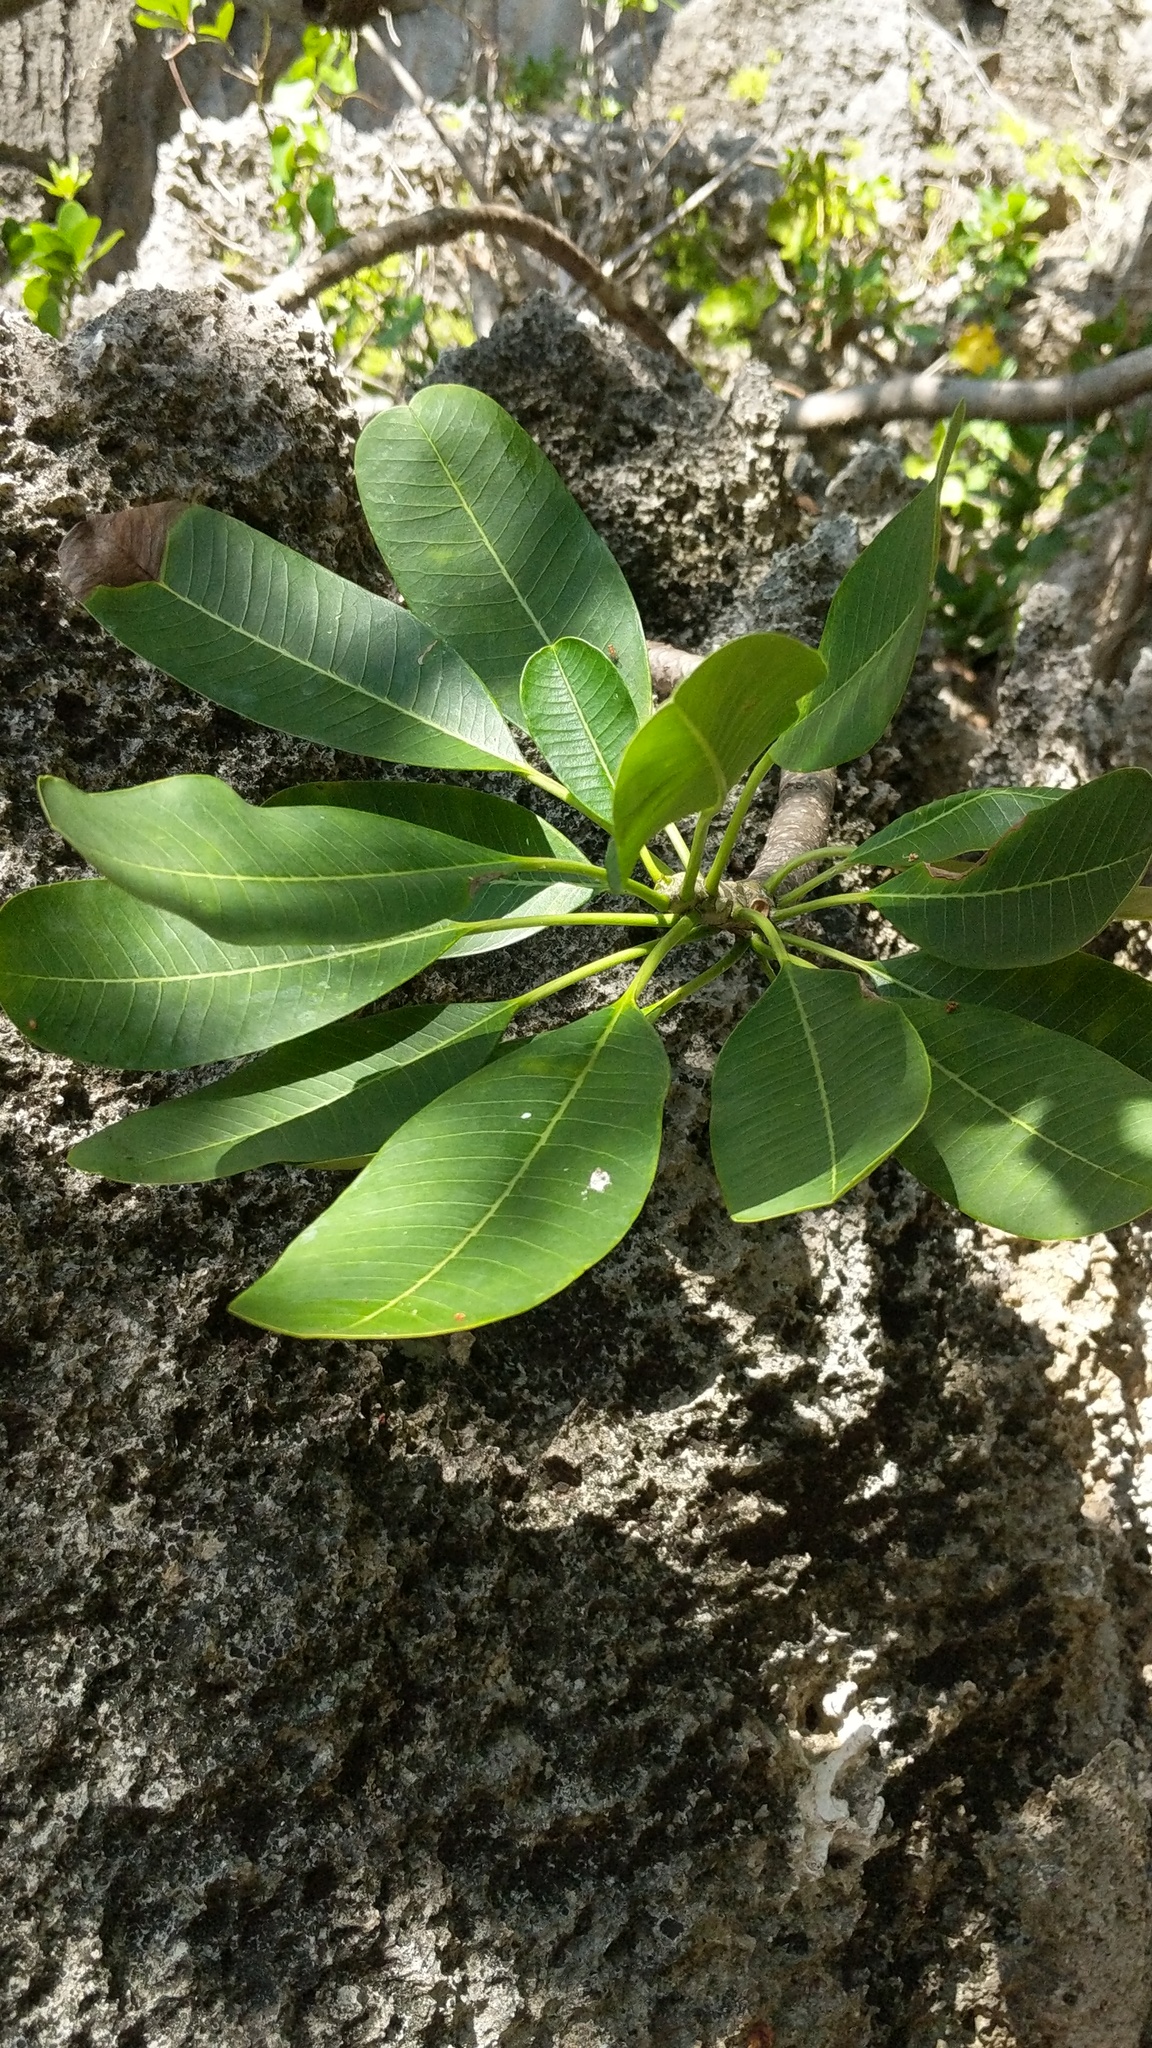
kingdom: Plantae
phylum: Tracheophyta
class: Magnoliopsida
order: Gentianales
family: Apocynaceae
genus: Plumeria
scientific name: Plumeria obtusa
